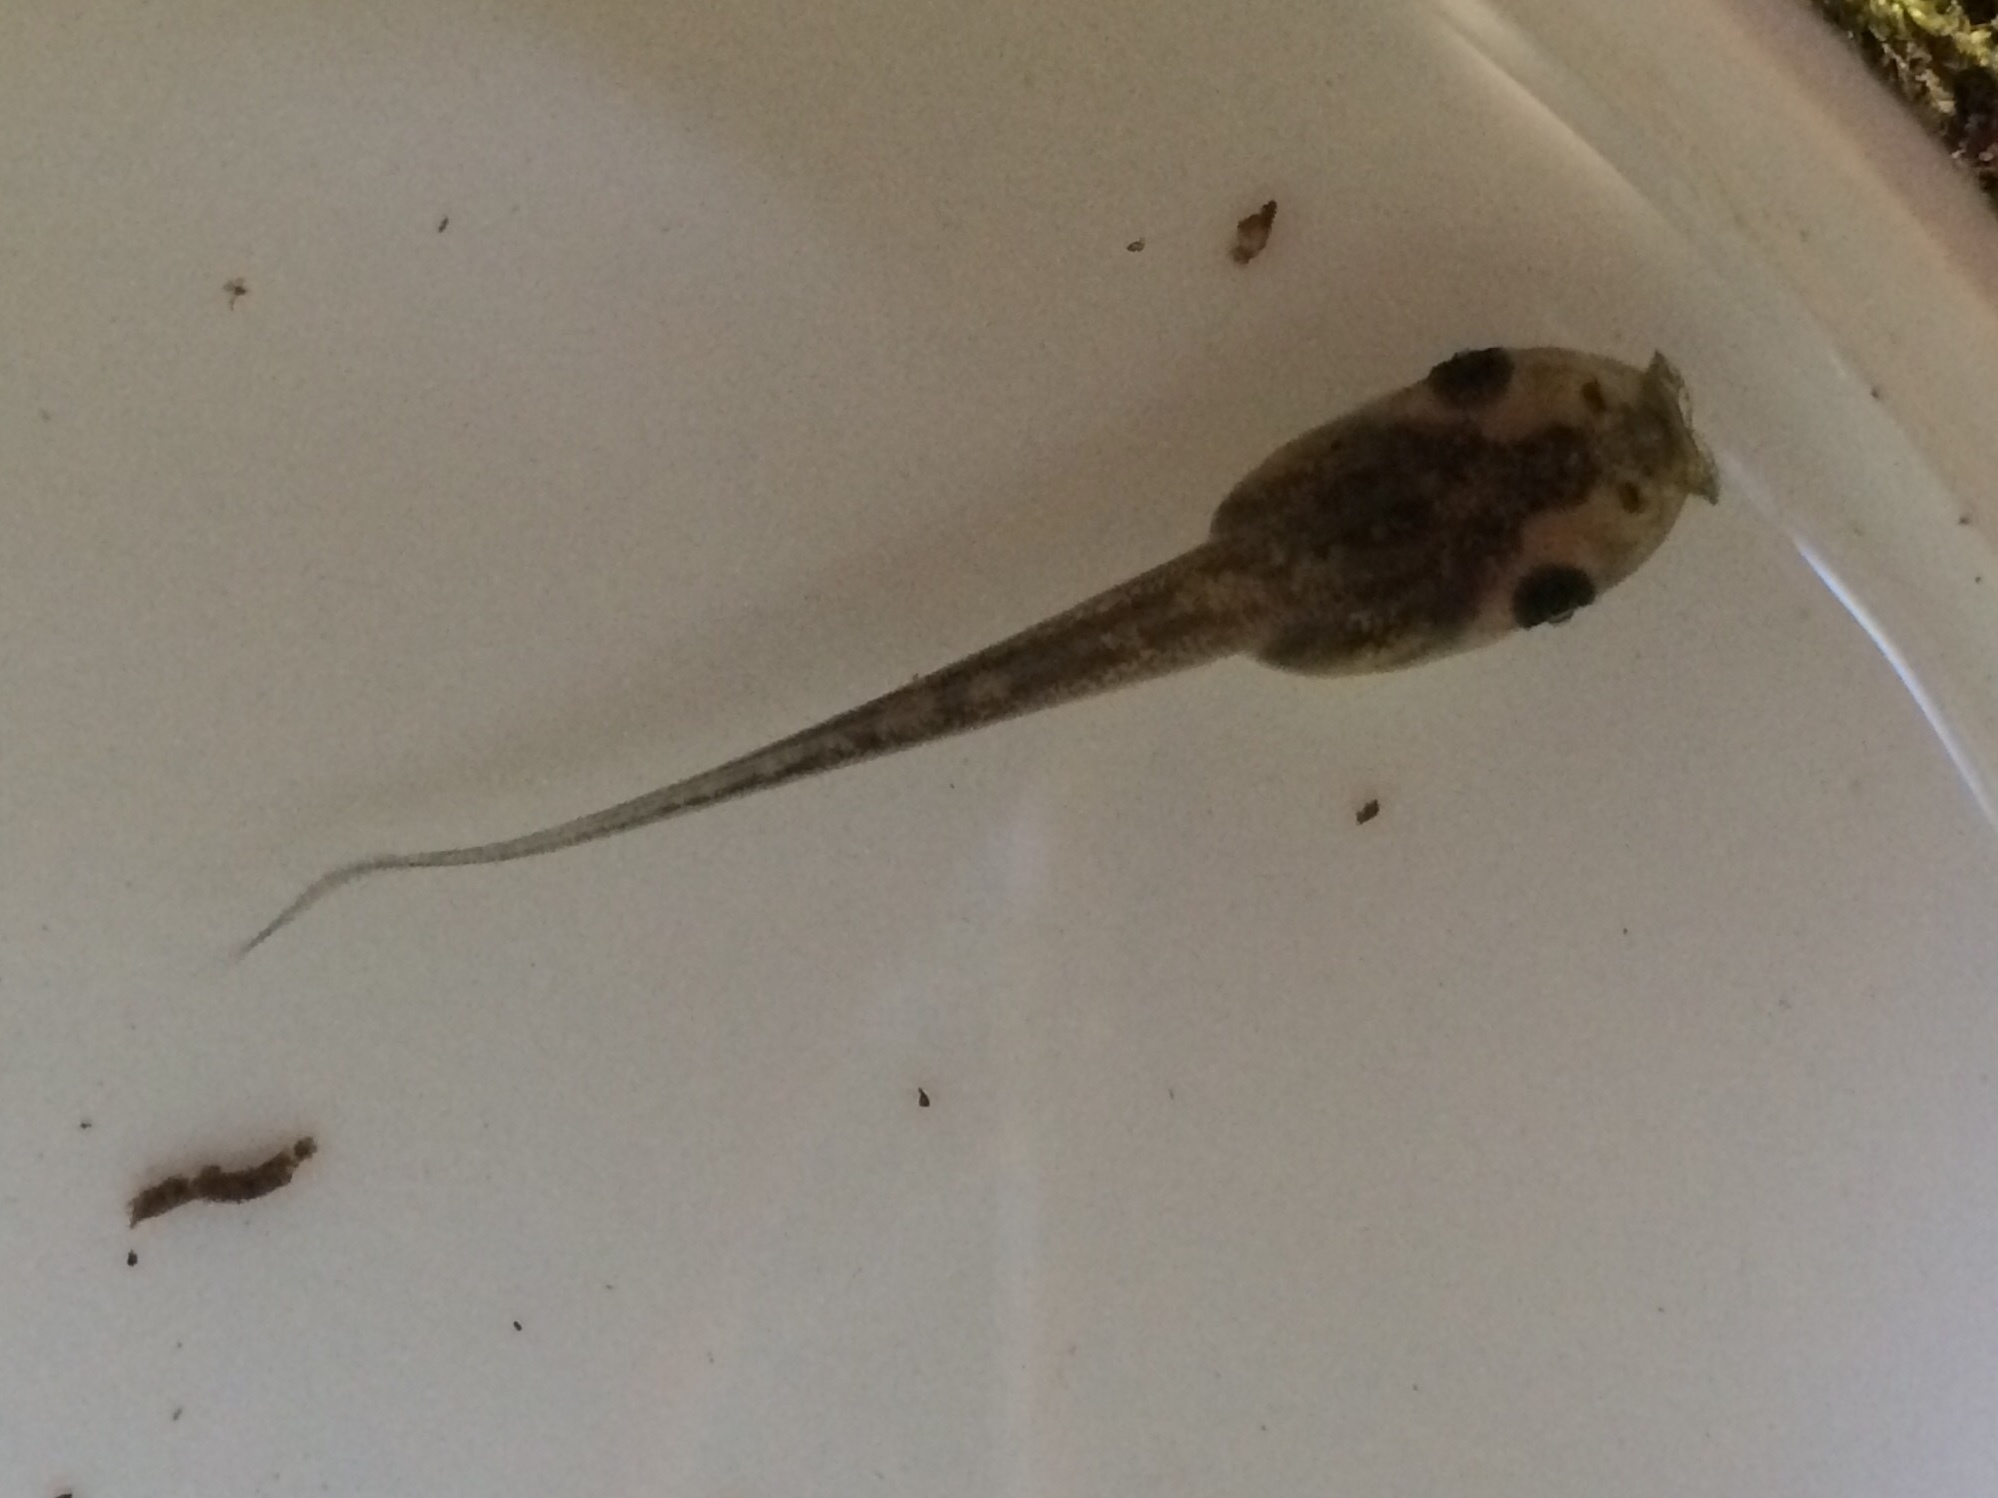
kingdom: Animalia
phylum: Chordata
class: Amphibia
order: Anura
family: Phyllomedusidae
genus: Hylomantis
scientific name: Hylomantis granulosa
